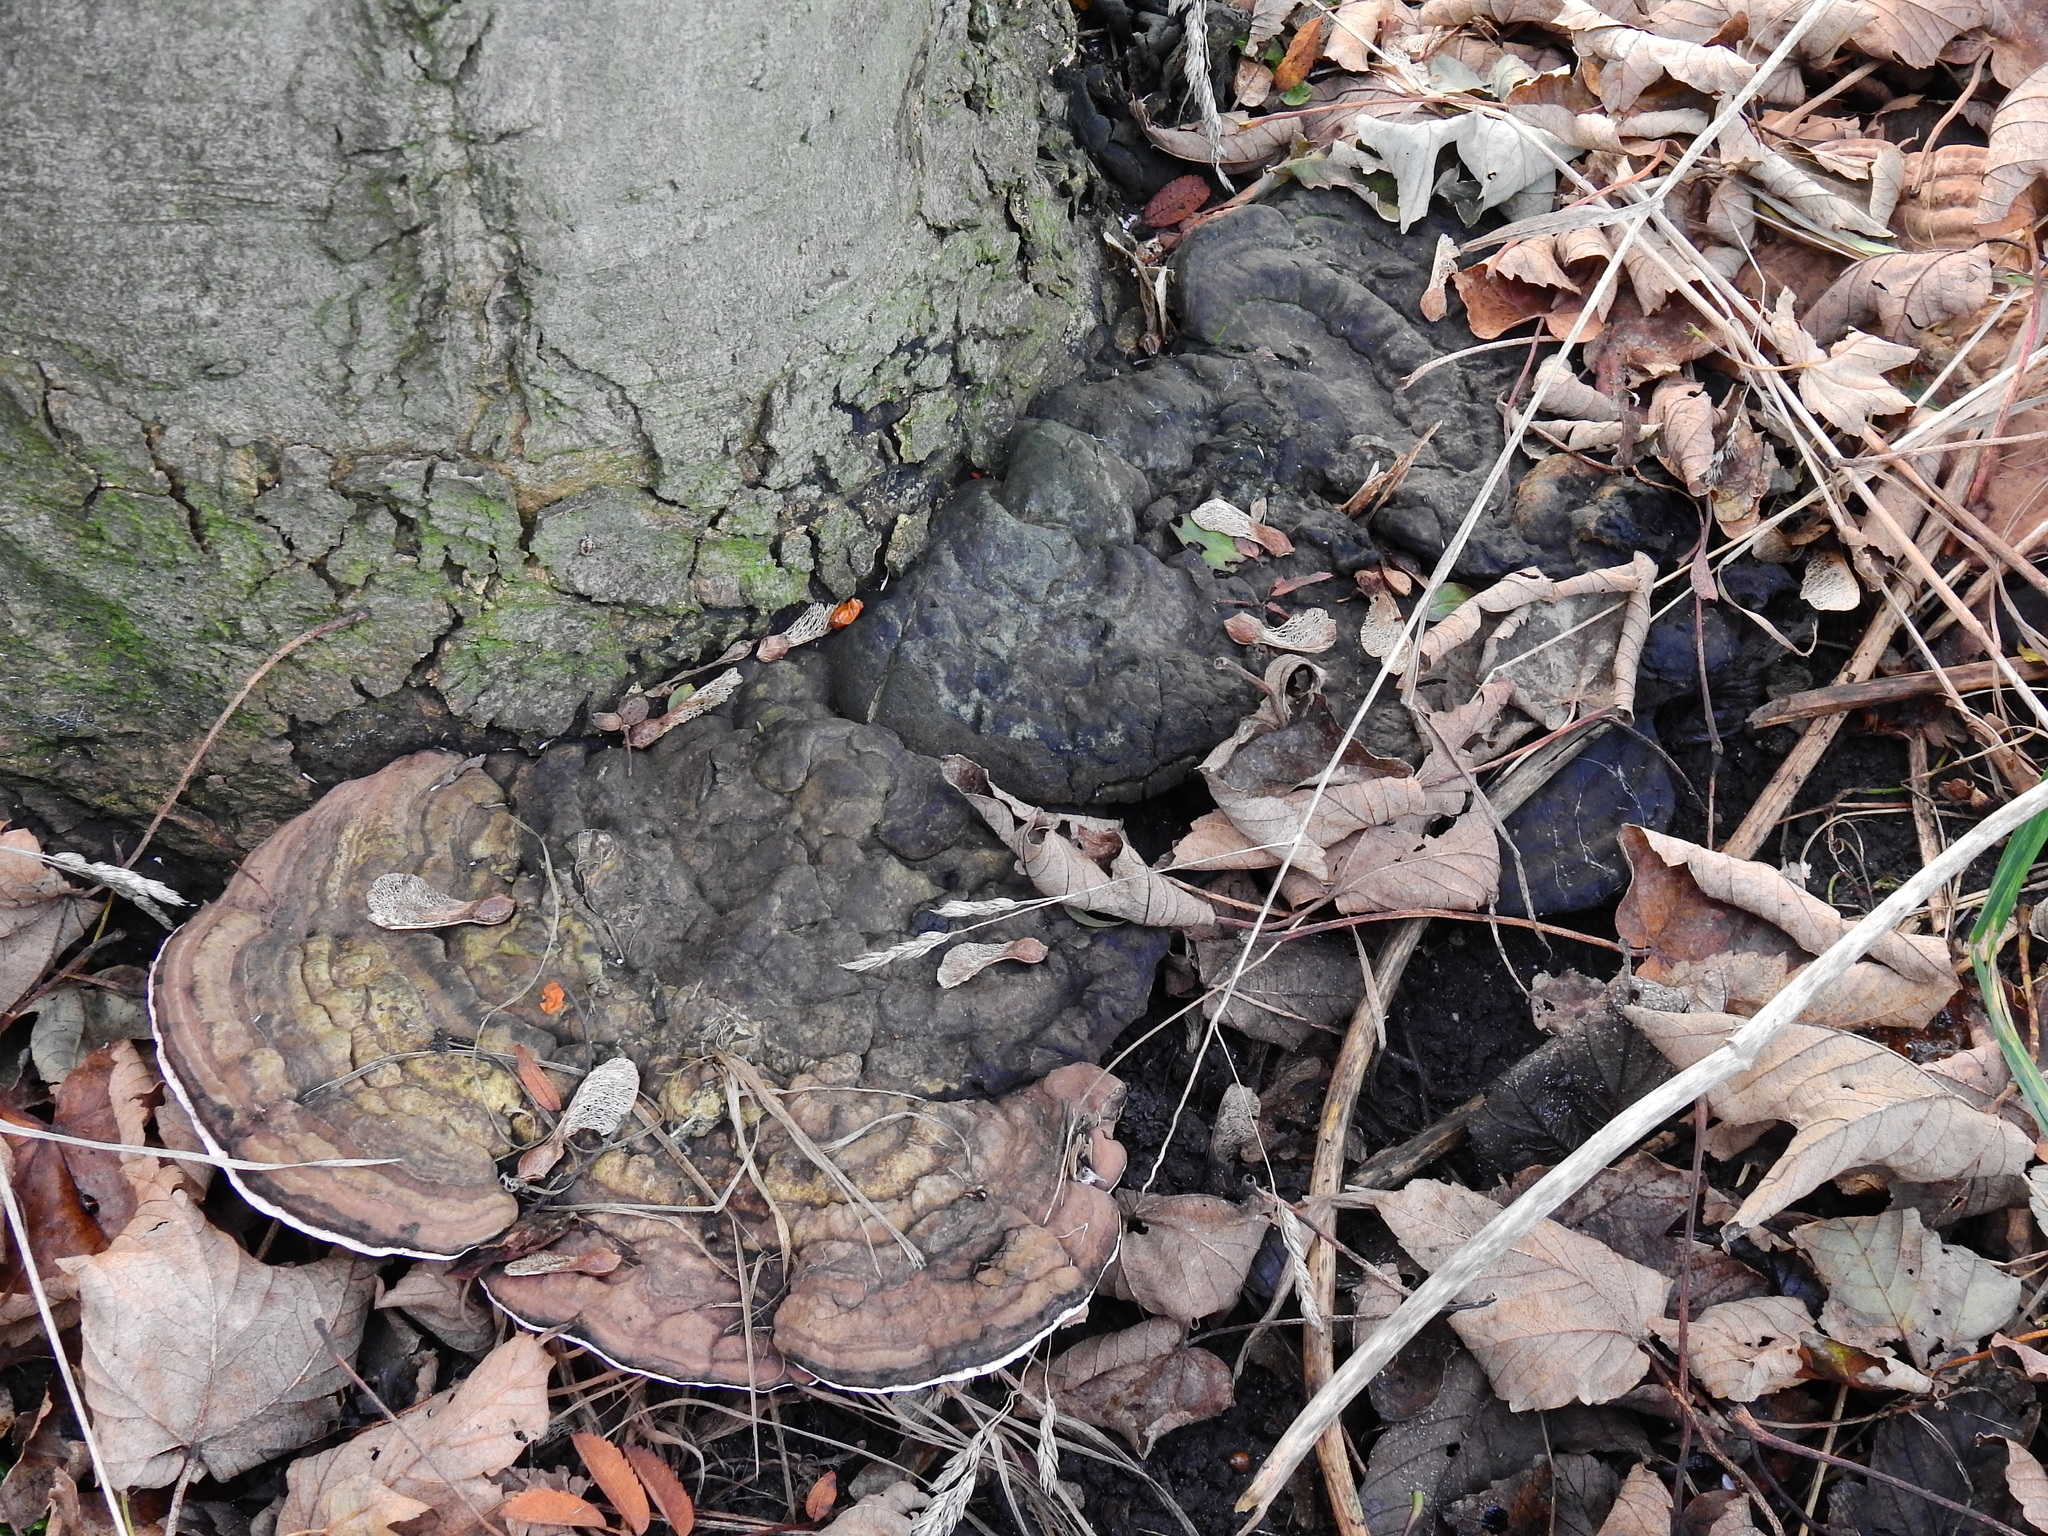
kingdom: Fungi
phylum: Basidiomycota
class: Agaricomycetes
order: Polyporales
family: Polyporaceae
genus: Ganoderma
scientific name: Ganoderma applanatum
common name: Artist's bracket
